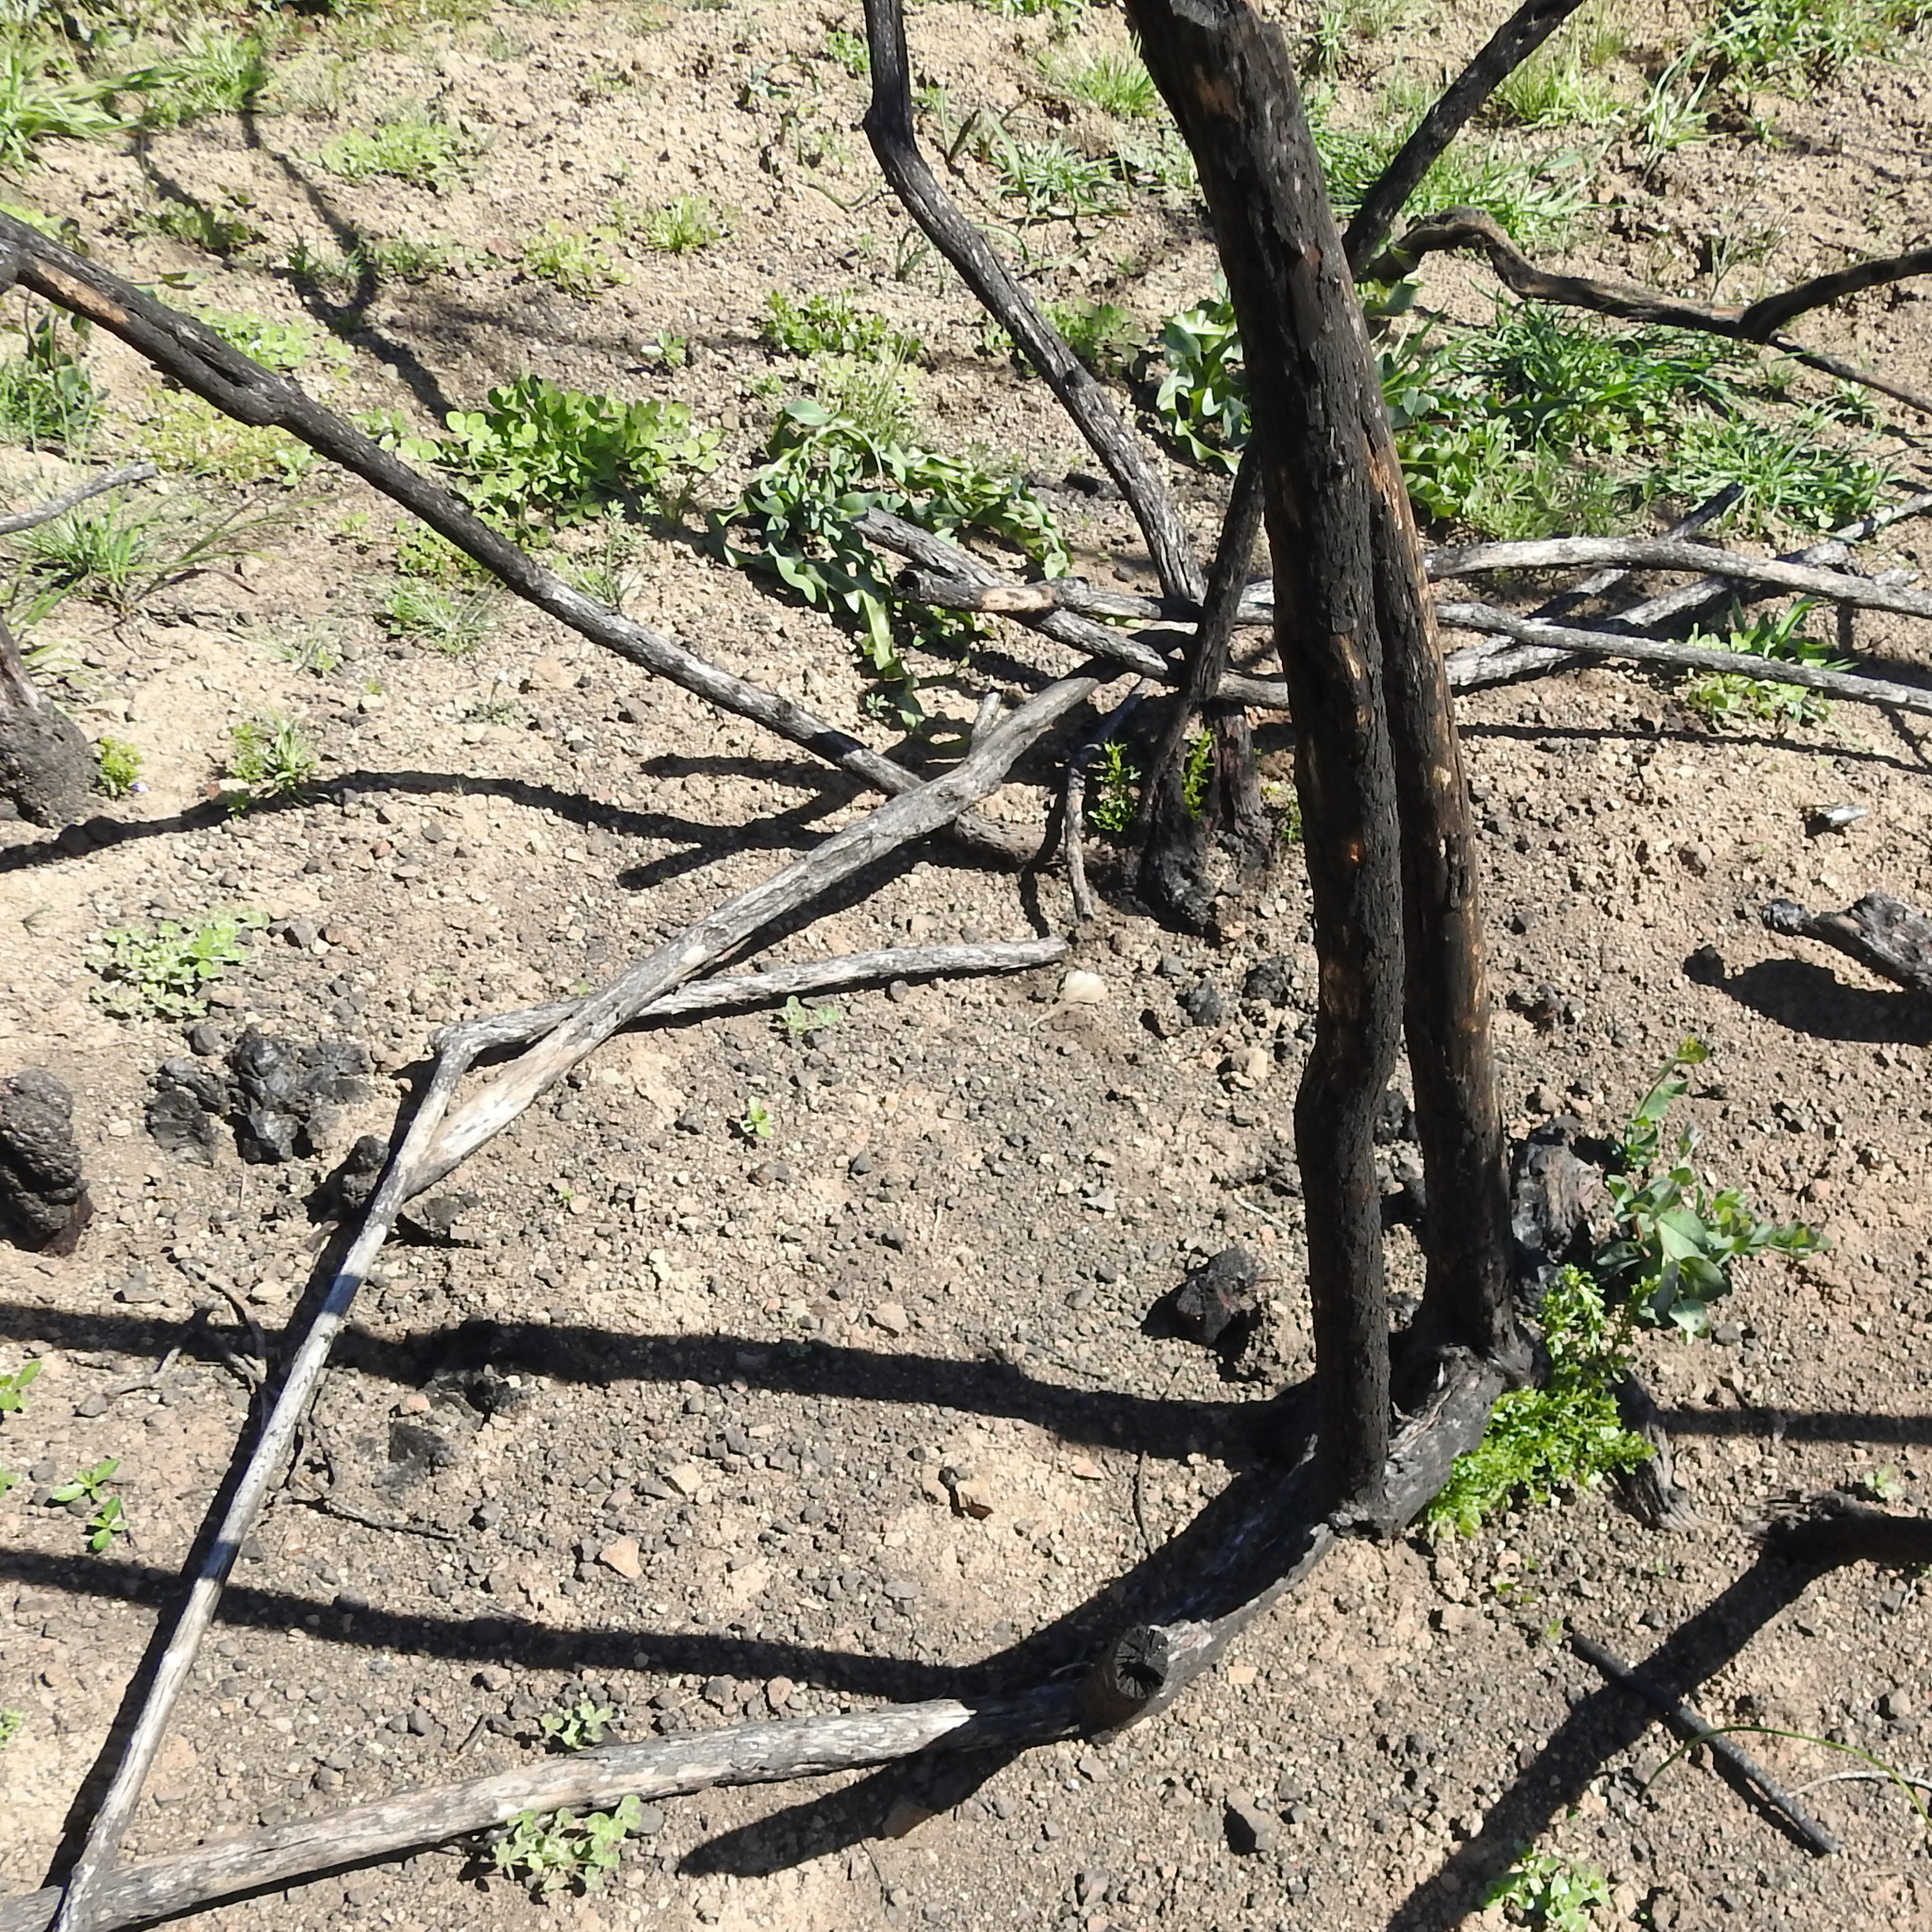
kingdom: Plantae
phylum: Tracheophyta
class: Magnoliopsida
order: Rosales
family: Rosaceae
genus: Adenostoma
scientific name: Adenostoma fasciculatum
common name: Chamise
